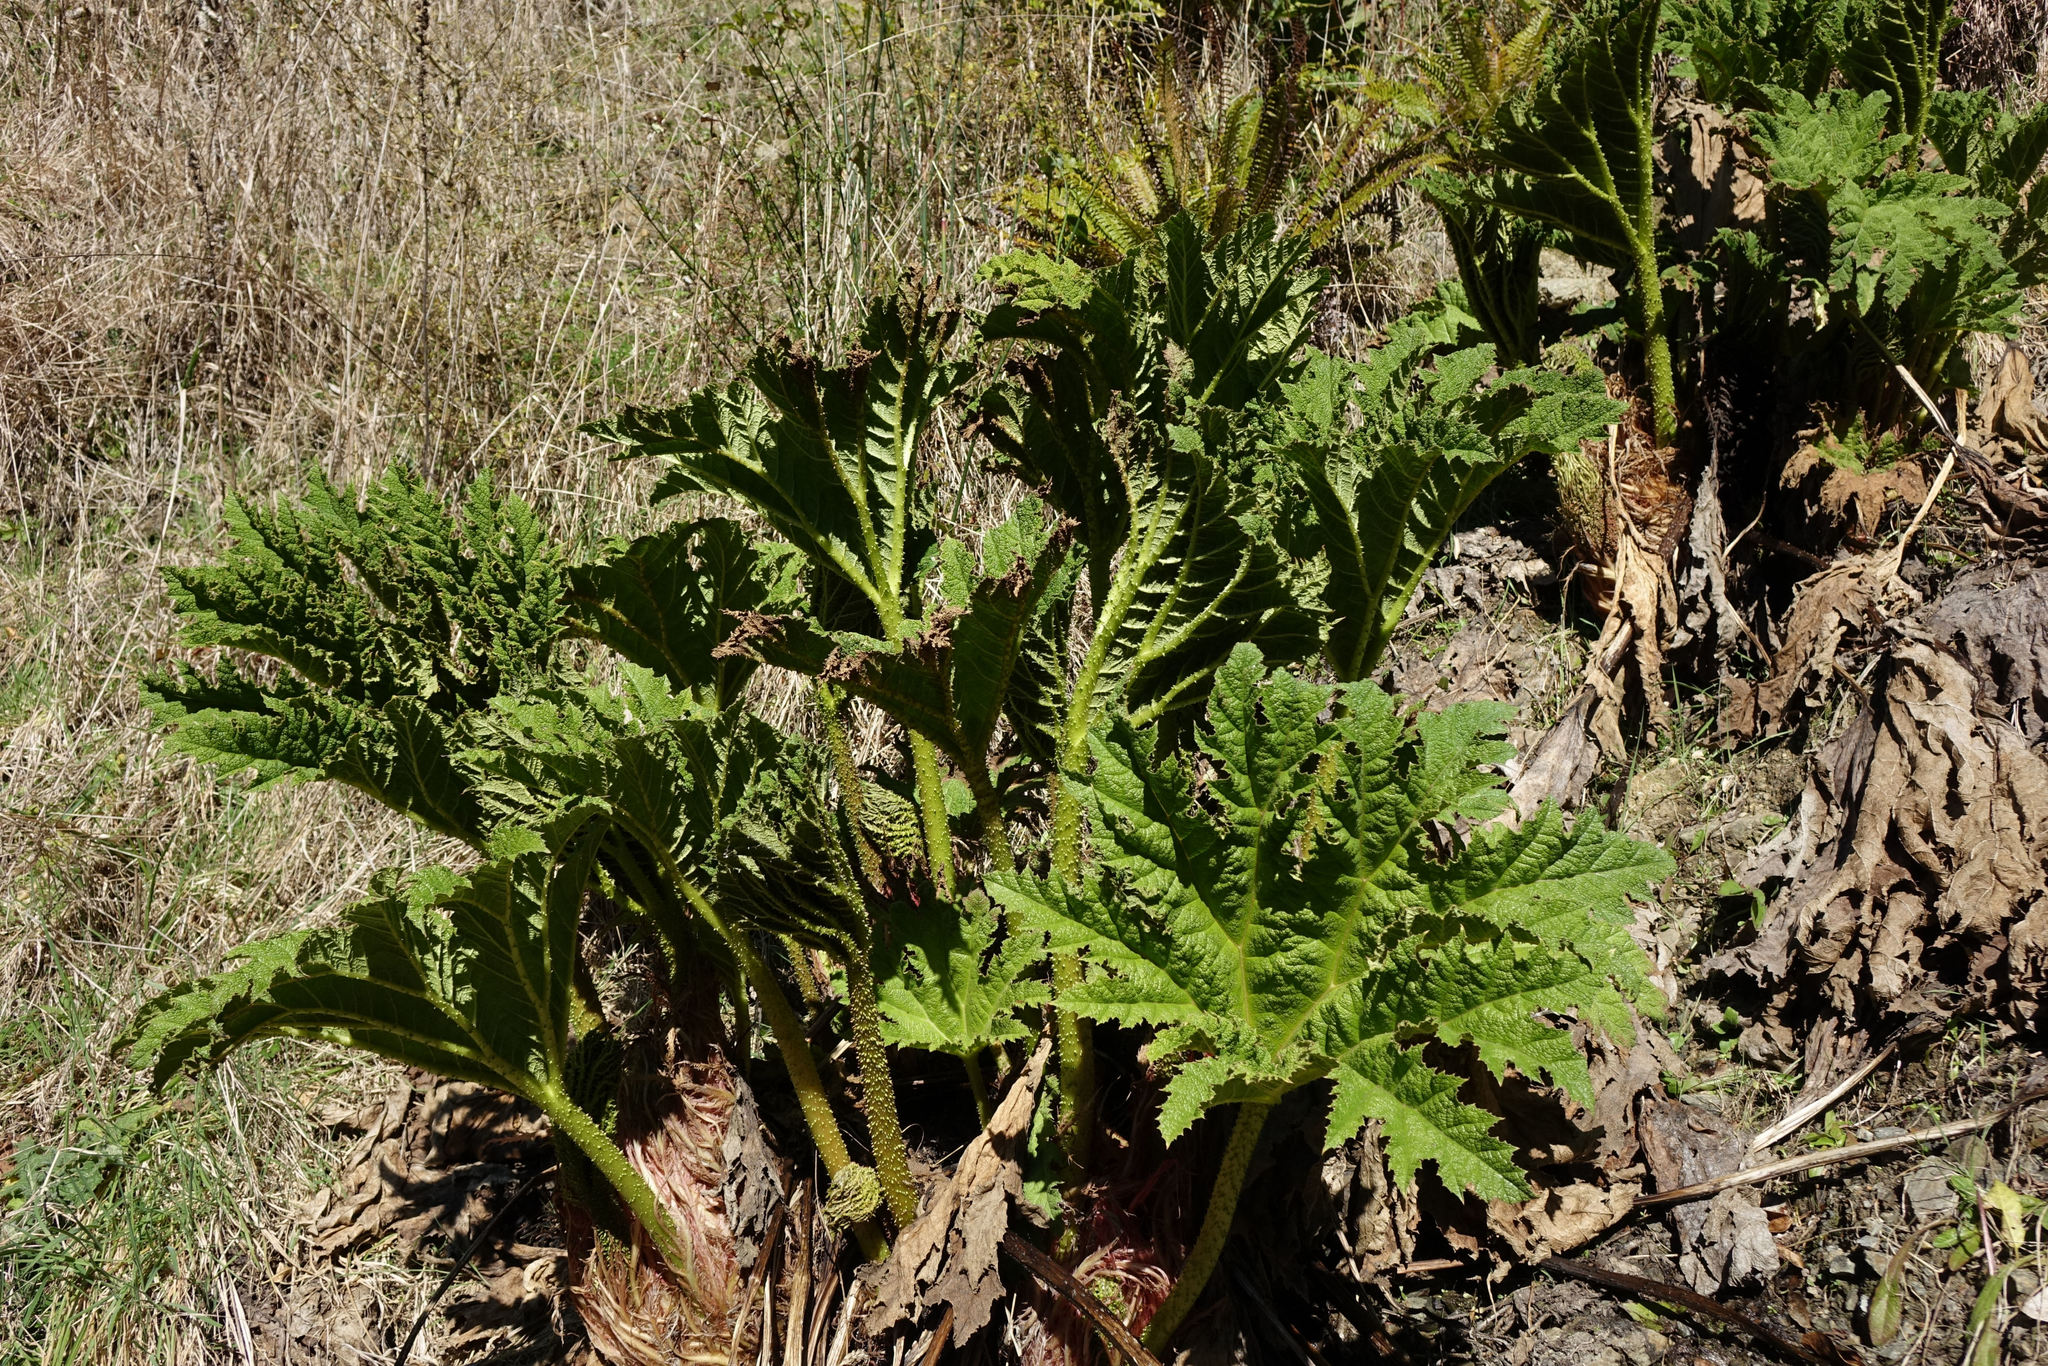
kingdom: Plantae
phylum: Tracheophyta
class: Magnoliopsida
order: Gunnerales
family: Gunneraceae
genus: Gunnera
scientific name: Gunnera tinctoria
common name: Giant-rhubarb
